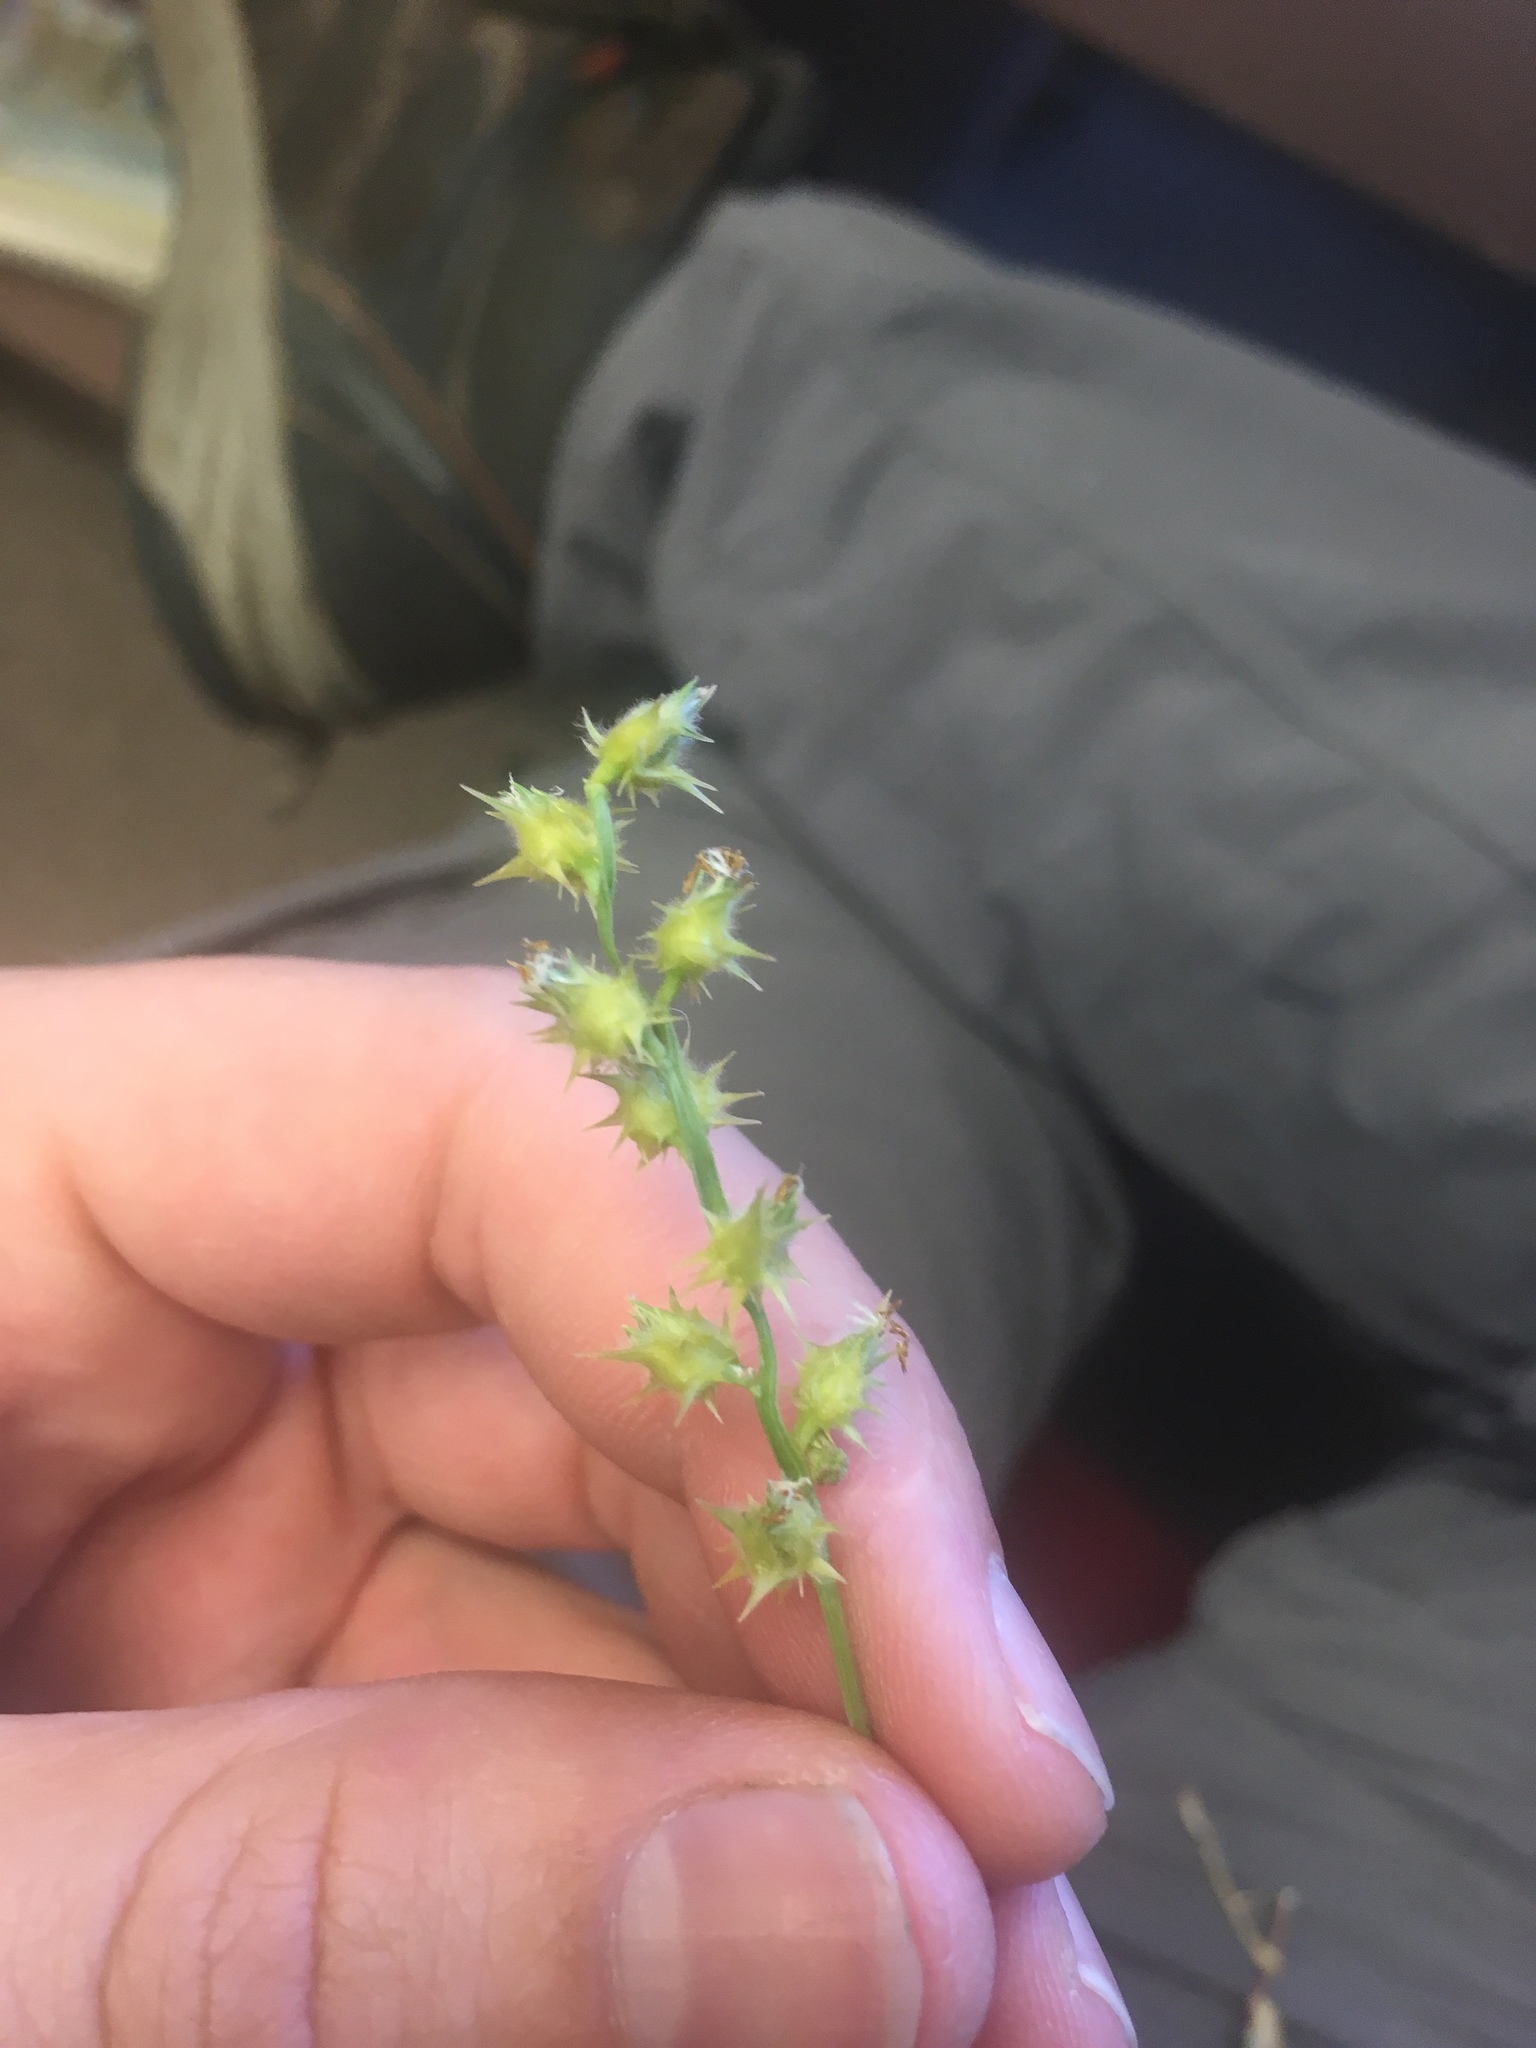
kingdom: Plantae
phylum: Tracheophyta
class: Liliopsida
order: Poales
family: Poaceae
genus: Cenchrus
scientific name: Cenchrus spinifex
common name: Coast sandbur
